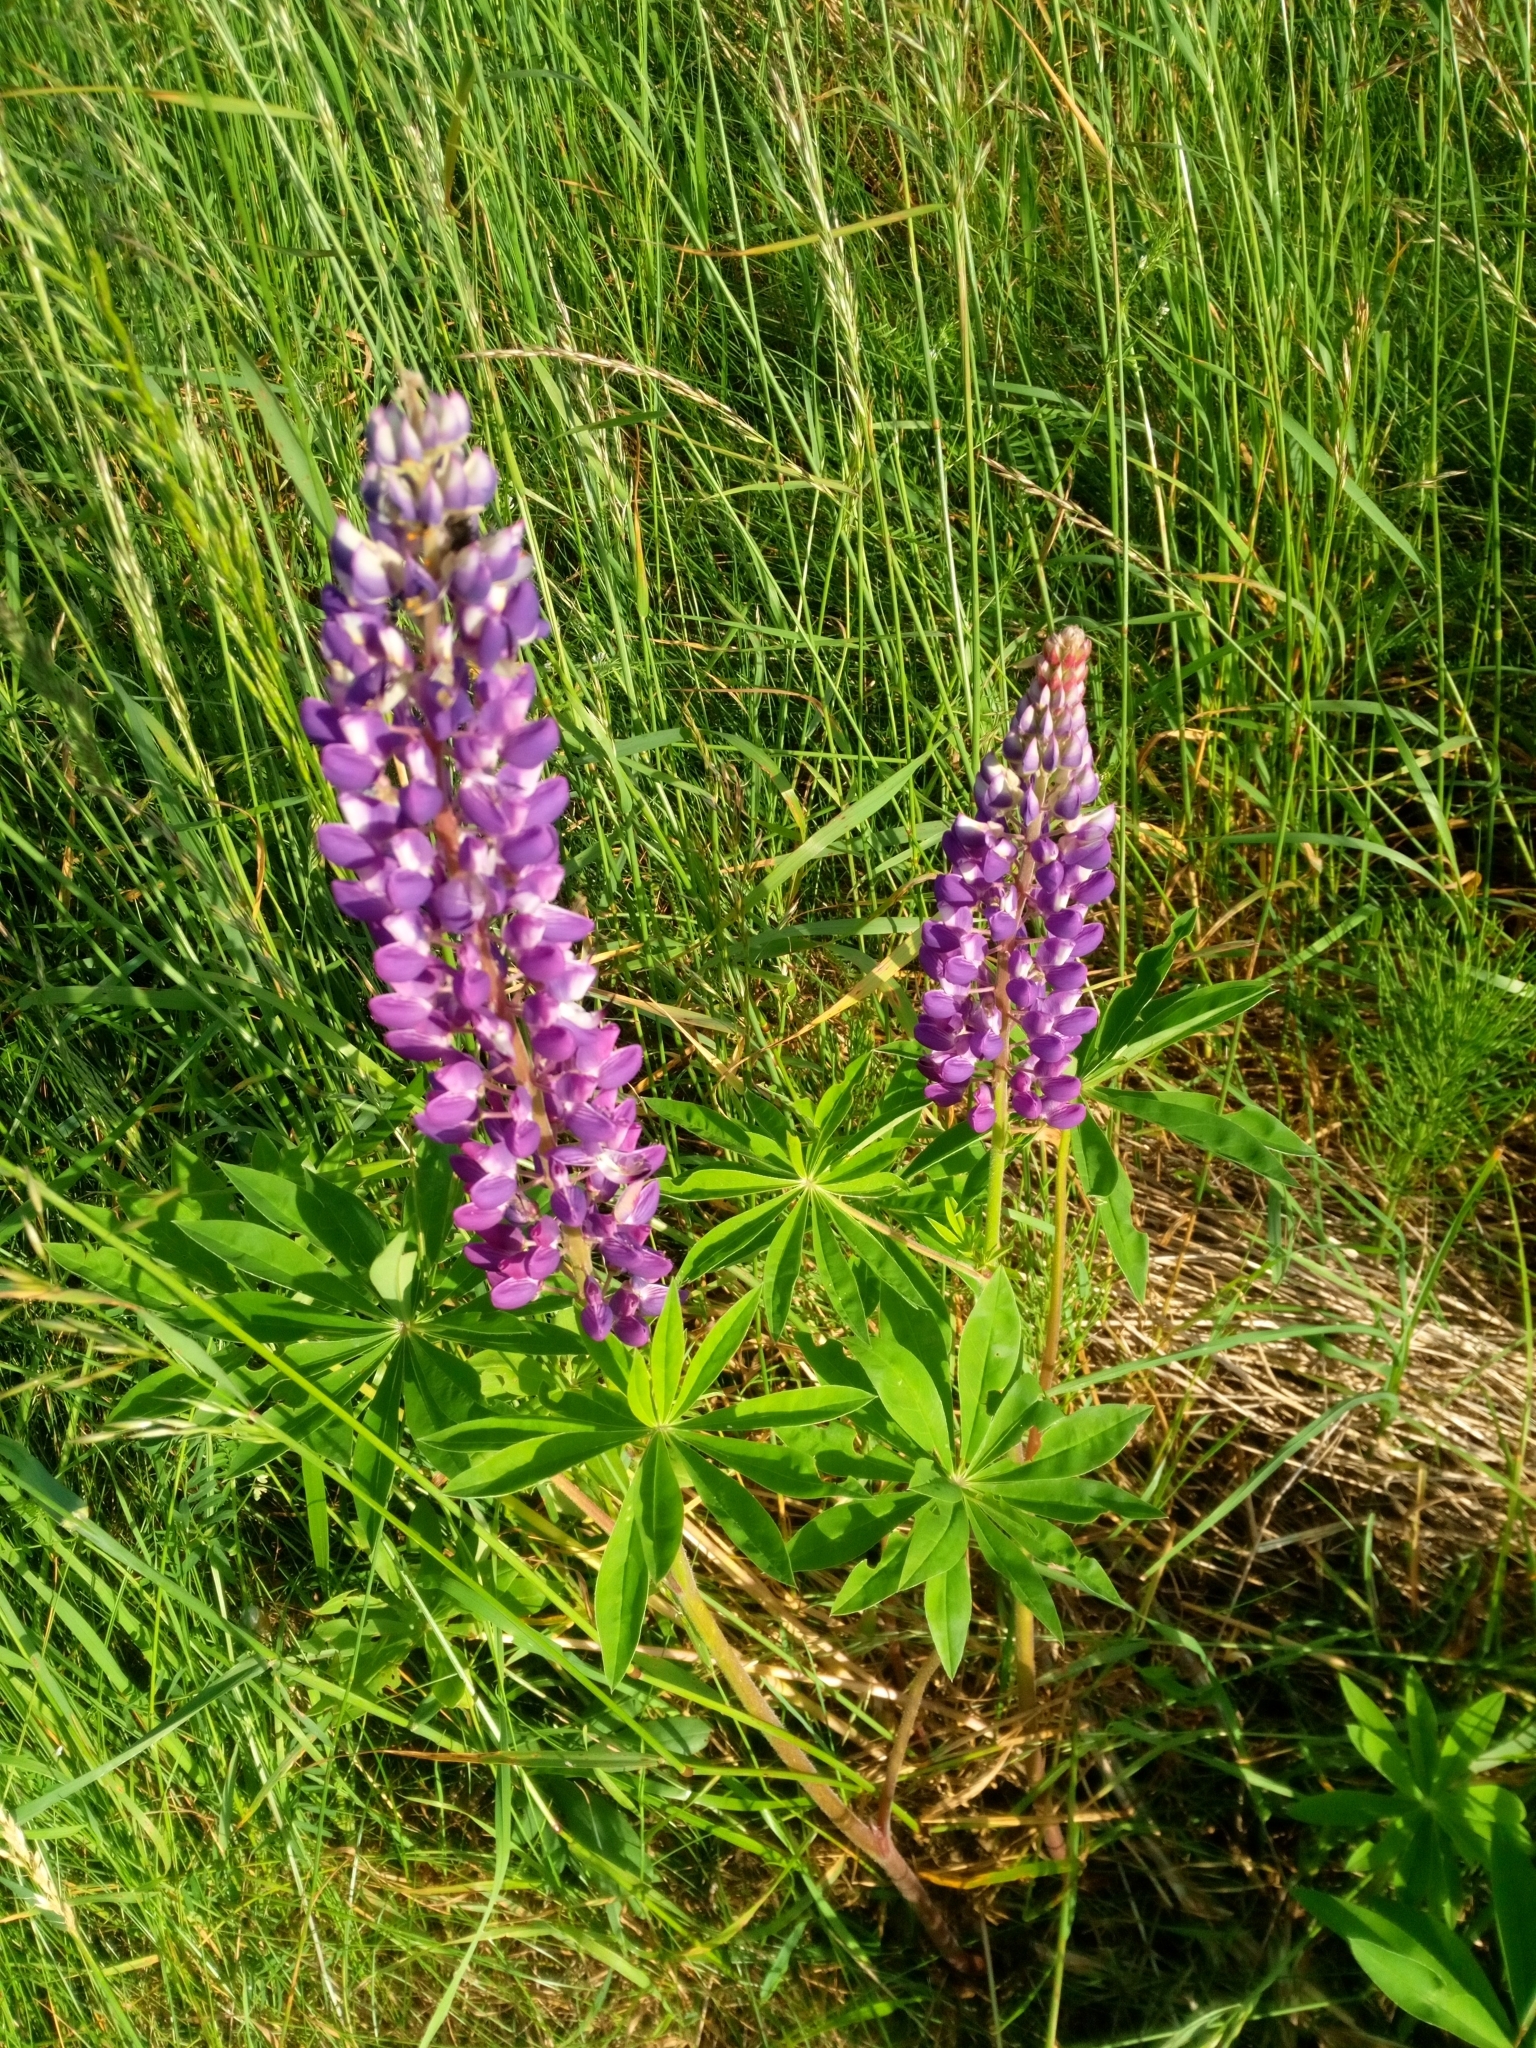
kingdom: Plantae
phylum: Tracheophyta
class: Magnoliopsida
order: Fabales
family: Fabaceae
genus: Lupinus
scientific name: Lupinus polyphyllus
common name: Garden lupin
